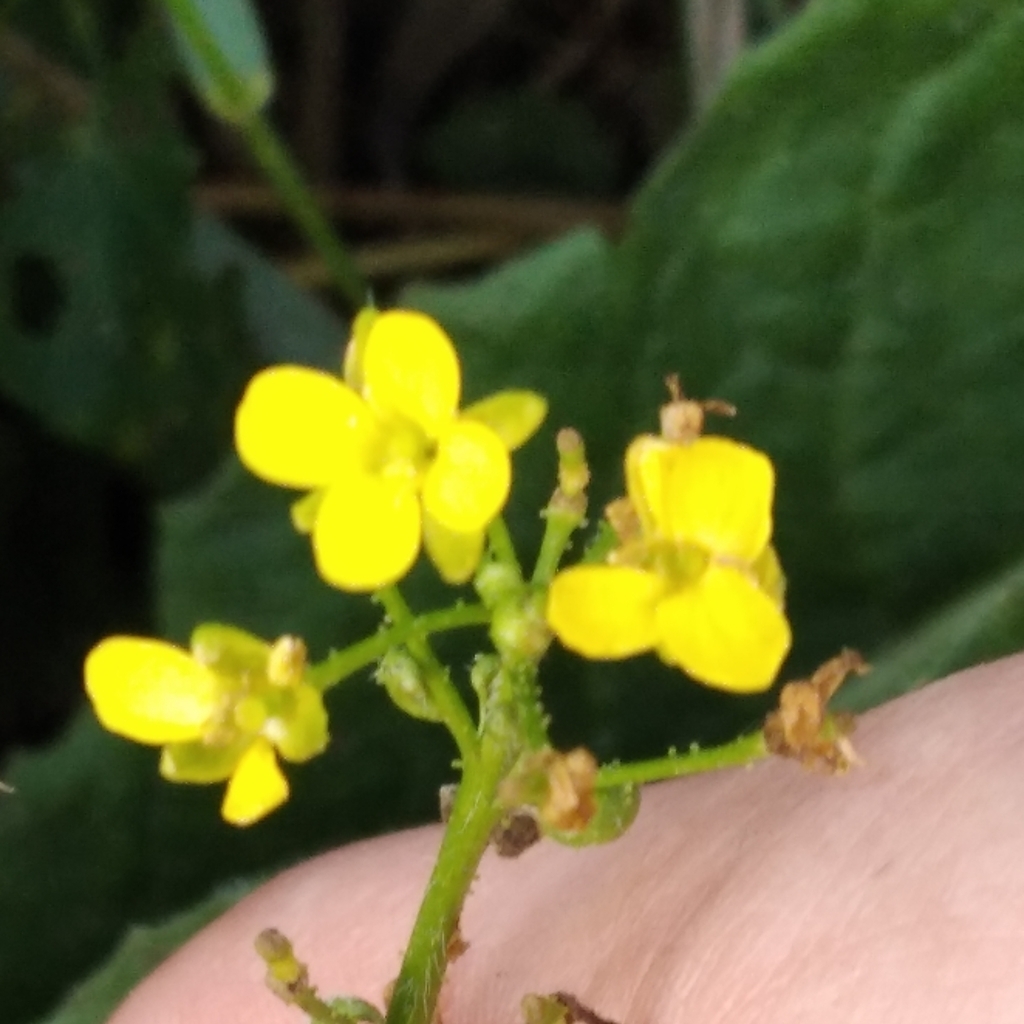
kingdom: Plantae
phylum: Tracheophyta
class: Magnoliopsida
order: Brassicales
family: Brassicaceae
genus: Bunias
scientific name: Bunias orientalis
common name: Warty-cabbage
